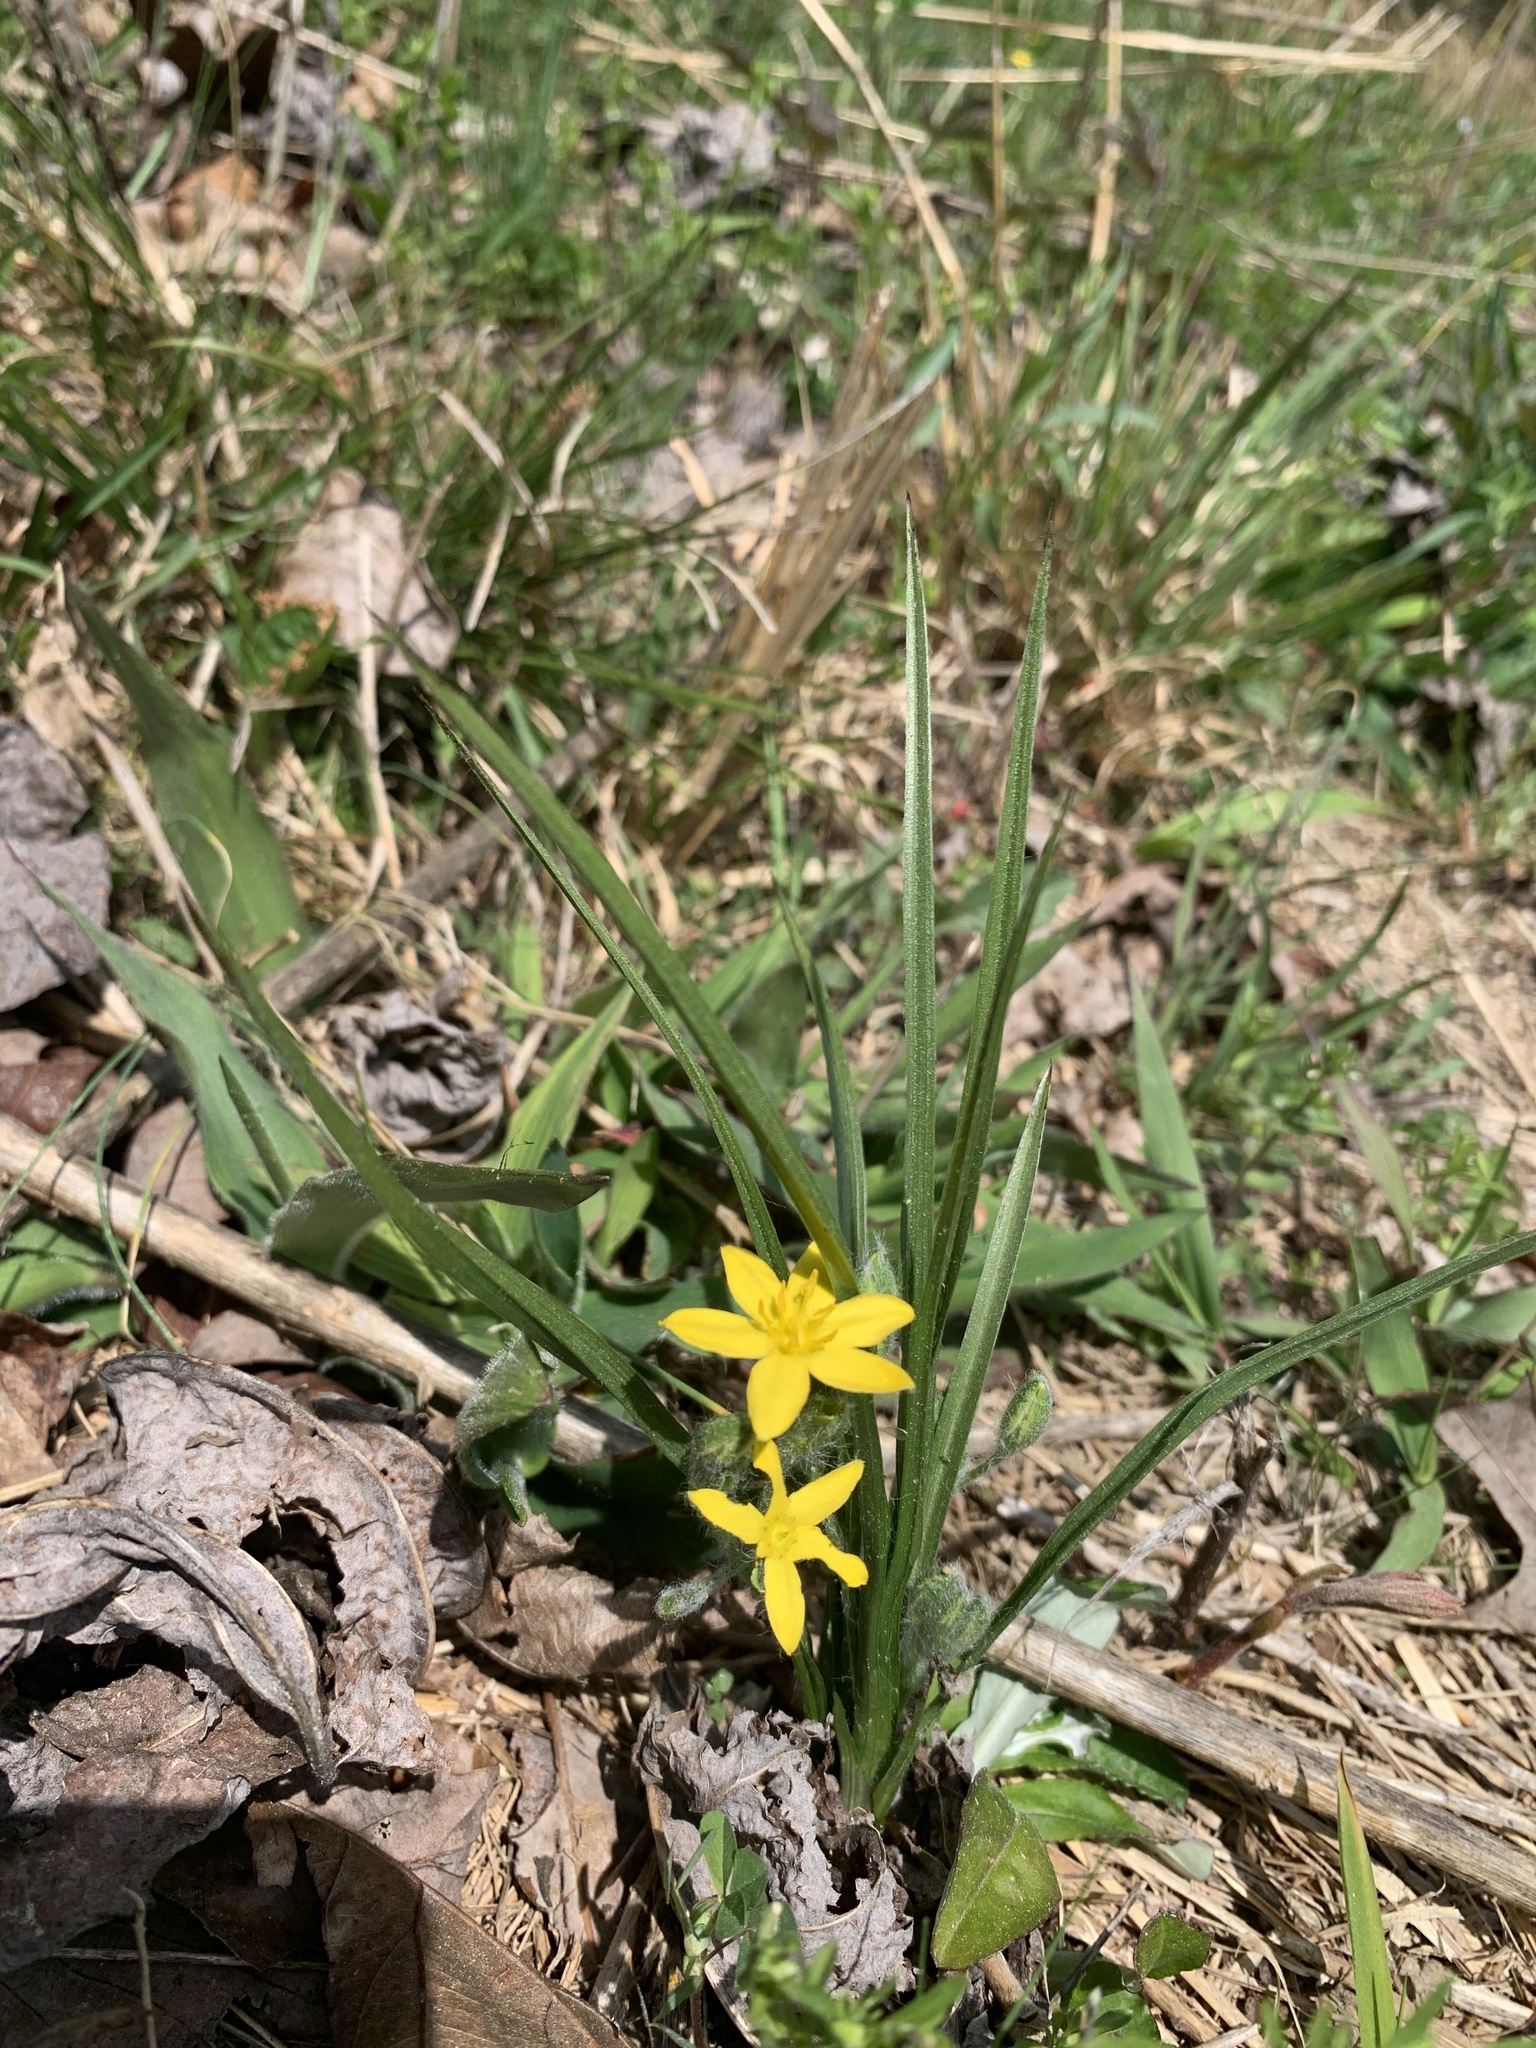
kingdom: Plantae
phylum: Tracheophyta
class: Liliopsida
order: Asparagales
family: Hypoxidaceae
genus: Hypoxis
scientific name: Hypoxis hirsuta
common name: Common goldstar
